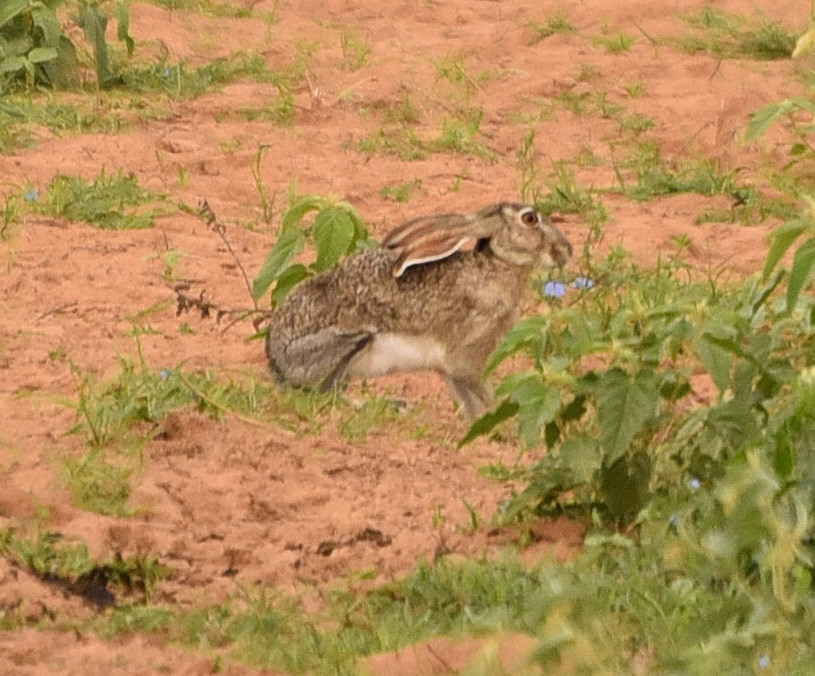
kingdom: Animalia
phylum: Chordata
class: Mammalia
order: Lagomorpha
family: Leporidae
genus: Lepus
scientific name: Lepus californicus
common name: Black-tailed jackrabbit
